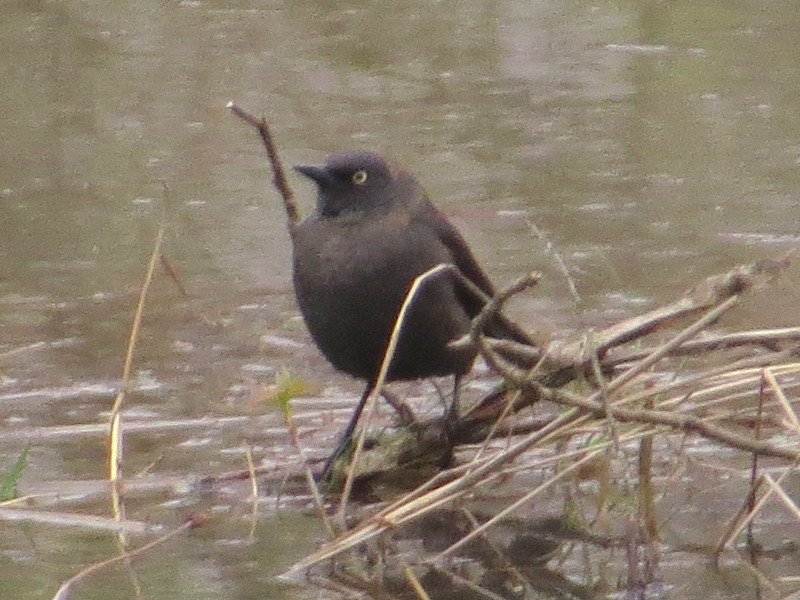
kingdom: Animalia
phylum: Chordata
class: Aves
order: Passeriformes
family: Icteridae
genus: Euphagus
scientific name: Euphagus carolinus
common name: Rusty blackbird
